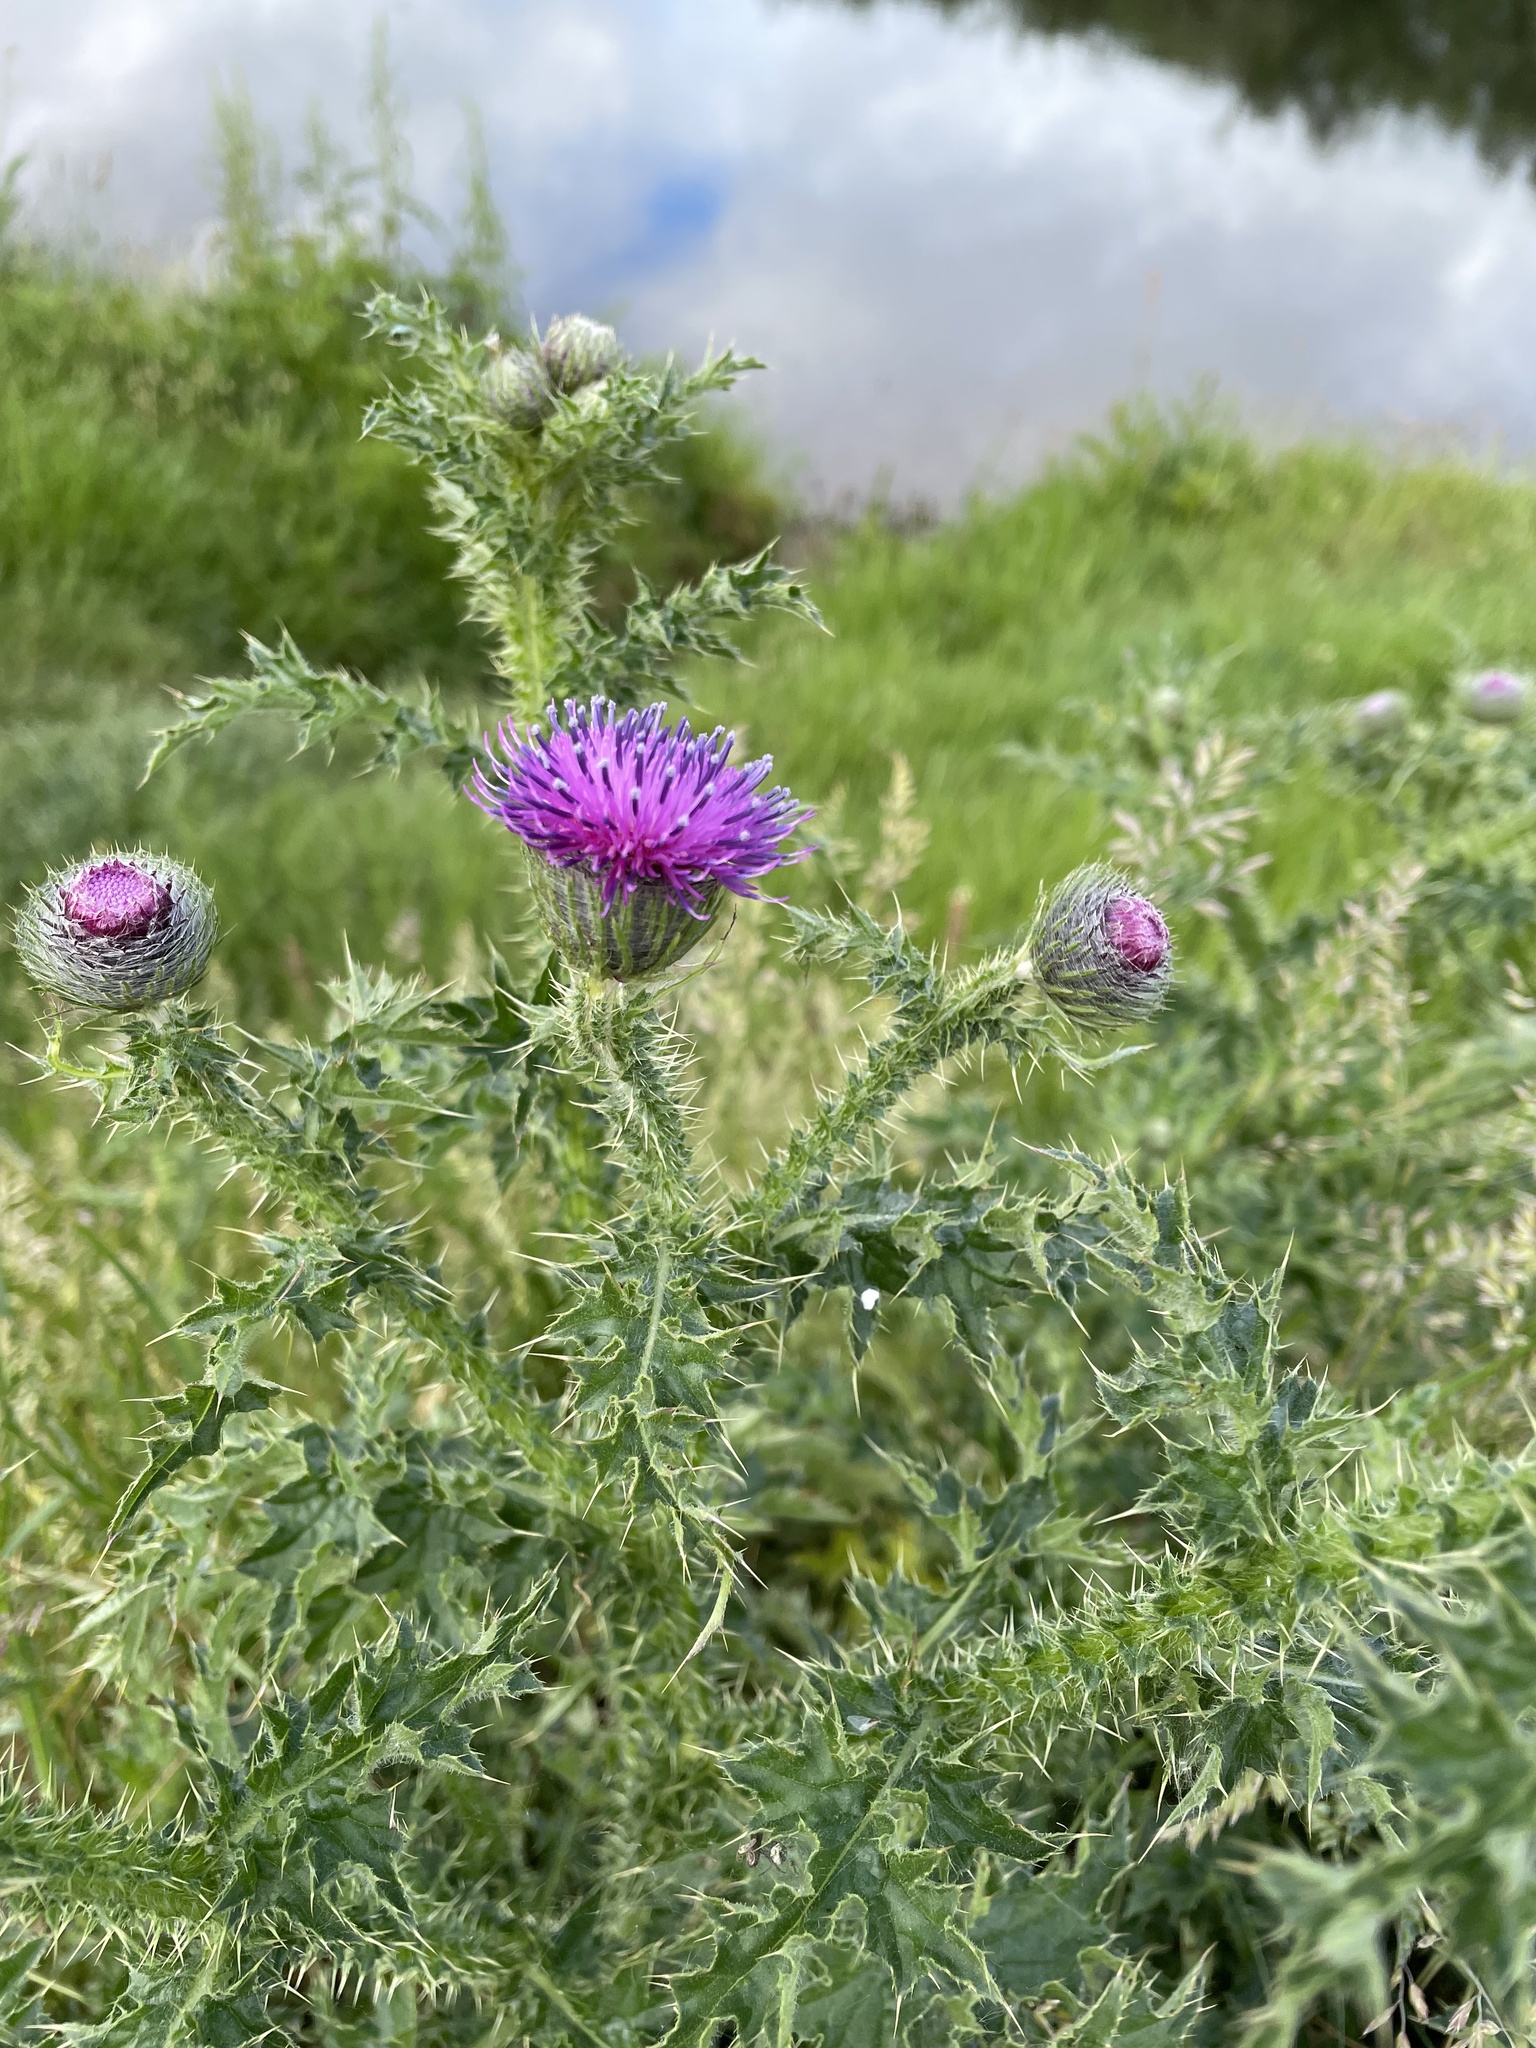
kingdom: Plantae
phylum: Tracheophyta
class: Magnoliopsida
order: Asterales
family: Asteraceae
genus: Carduus
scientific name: Carduus crispus
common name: Welted thistle
